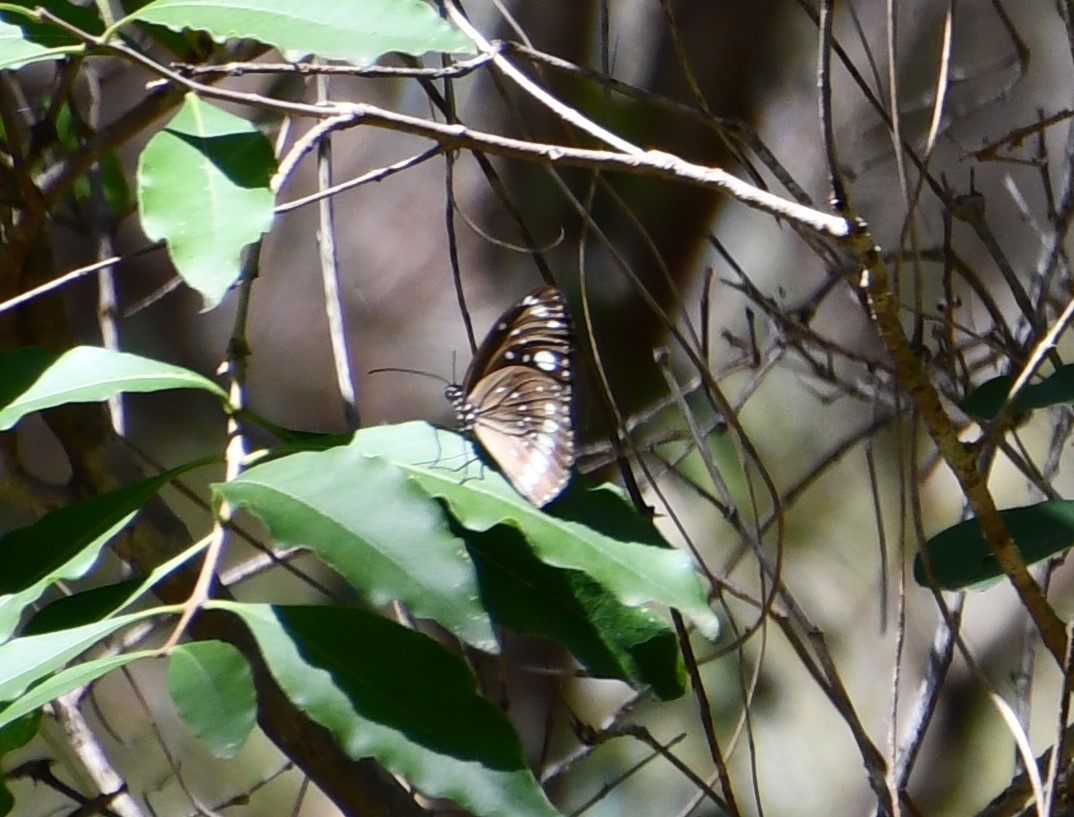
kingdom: Animalia
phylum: Arthropoda
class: Insecta
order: Lepidoptera
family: Nymphalidae
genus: Euploea
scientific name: Euploea core
